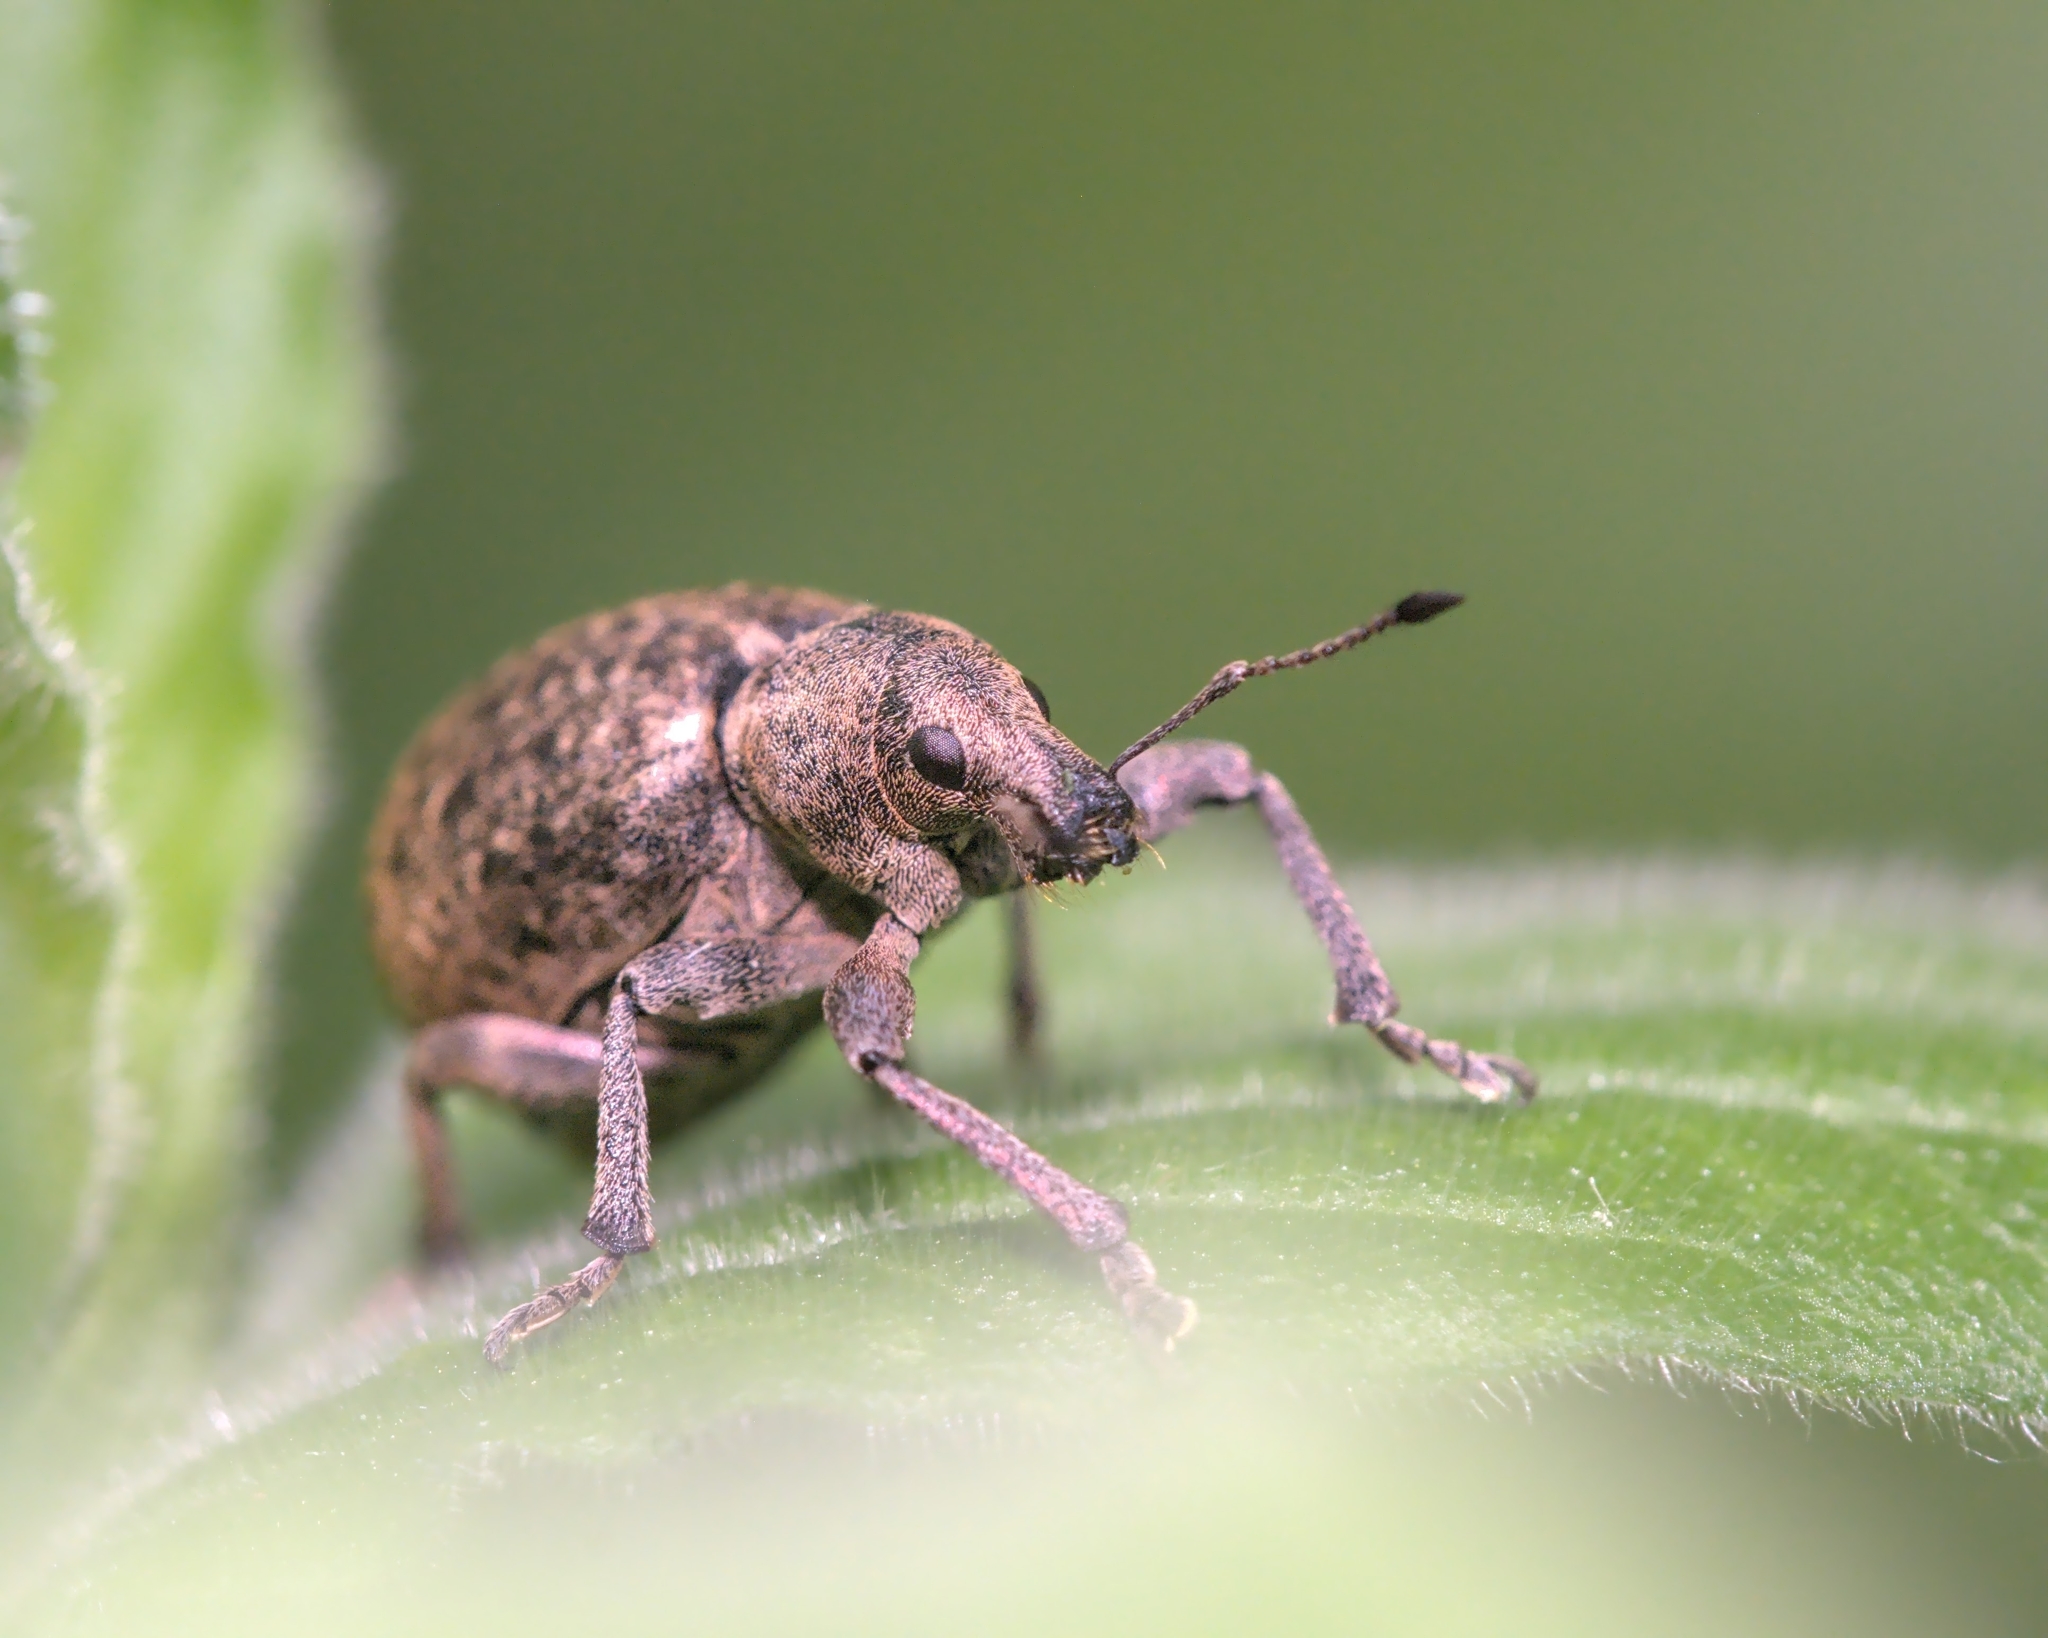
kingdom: Animalia
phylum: Arthropoda
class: Insecta
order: Coleoptera
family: Curculionidae
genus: Liophloeus
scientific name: Liophloeus tessulatus
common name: Weevil
